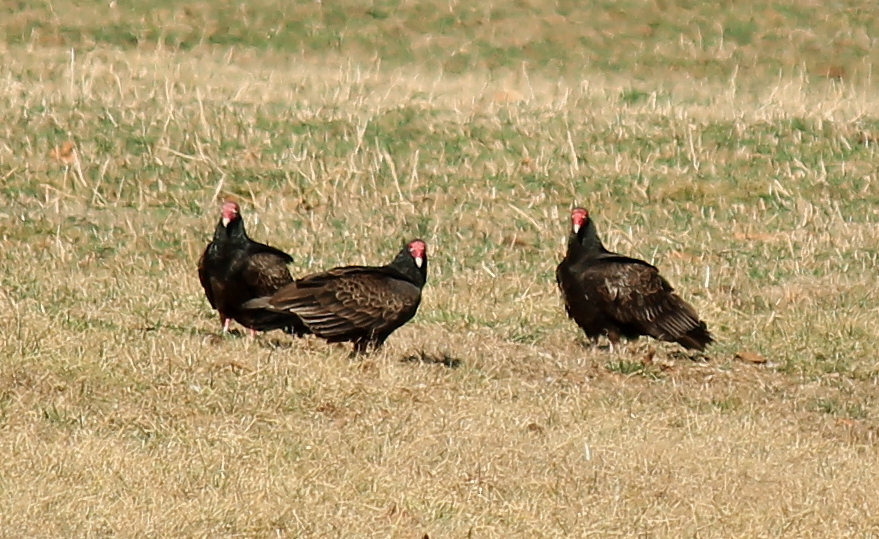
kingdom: Animalia
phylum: Chordata
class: Aves
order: Accipitriformes
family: Cathartidae
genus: Cathartes
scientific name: Cathartes aura
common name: Turkey vulture
